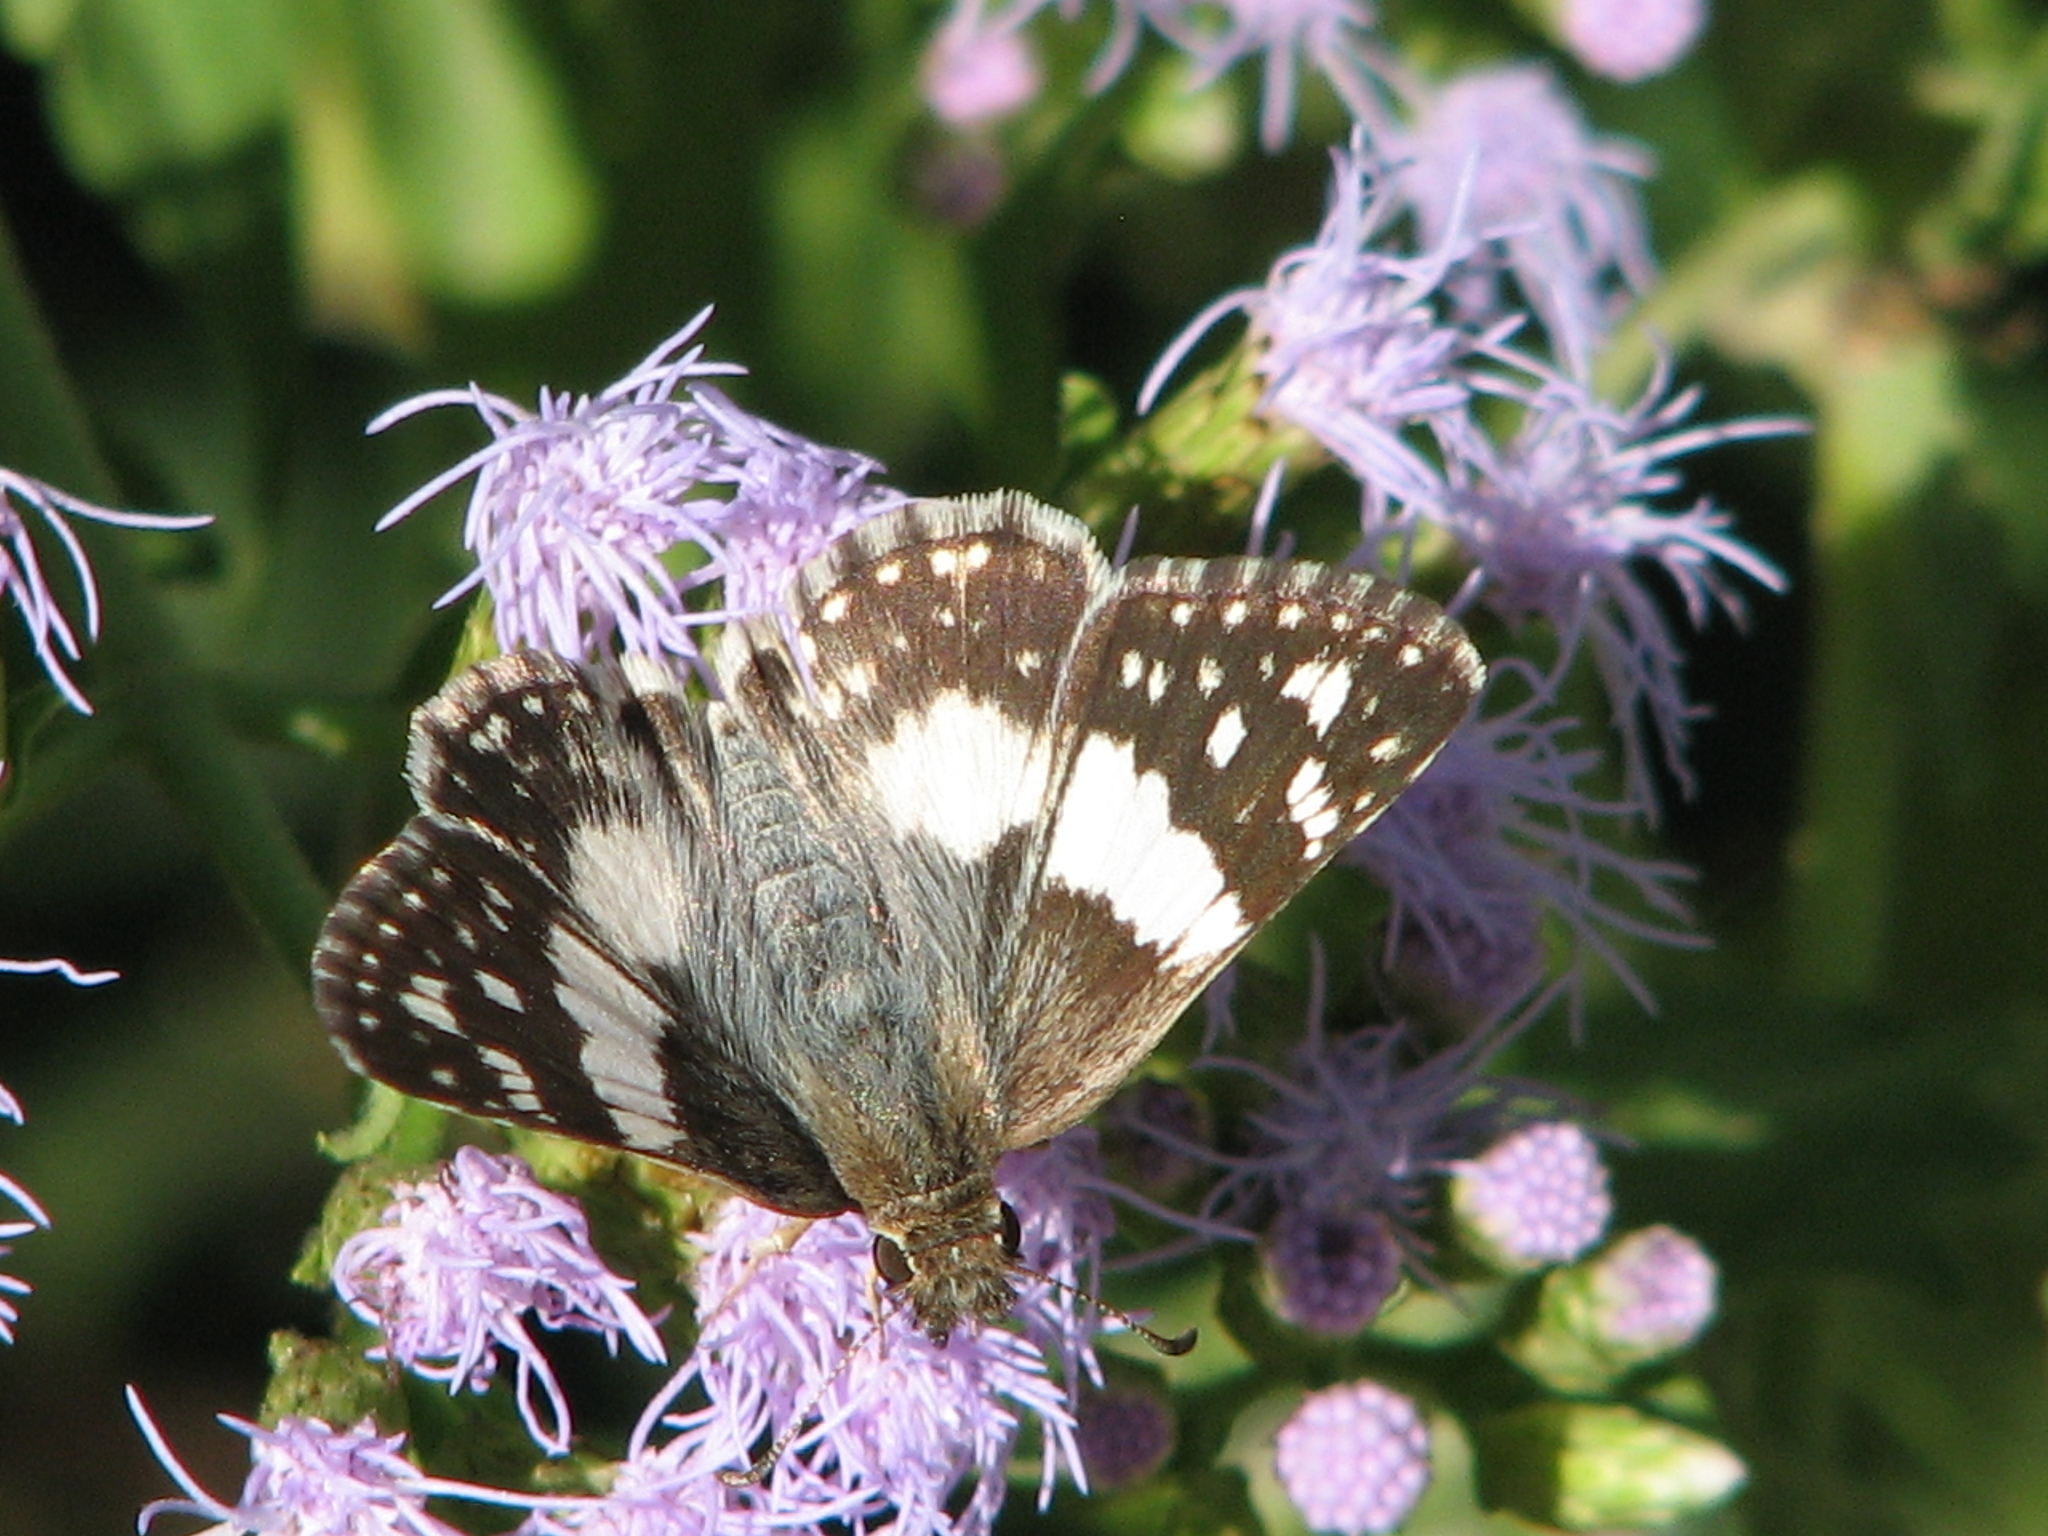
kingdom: Animalia
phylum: Arthropoda
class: Insecta
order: Lepidoptera
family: Hesperiidae
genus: Heliopyrgus
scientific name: Heliopyrgus domicella
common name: Erichson's white skipper
